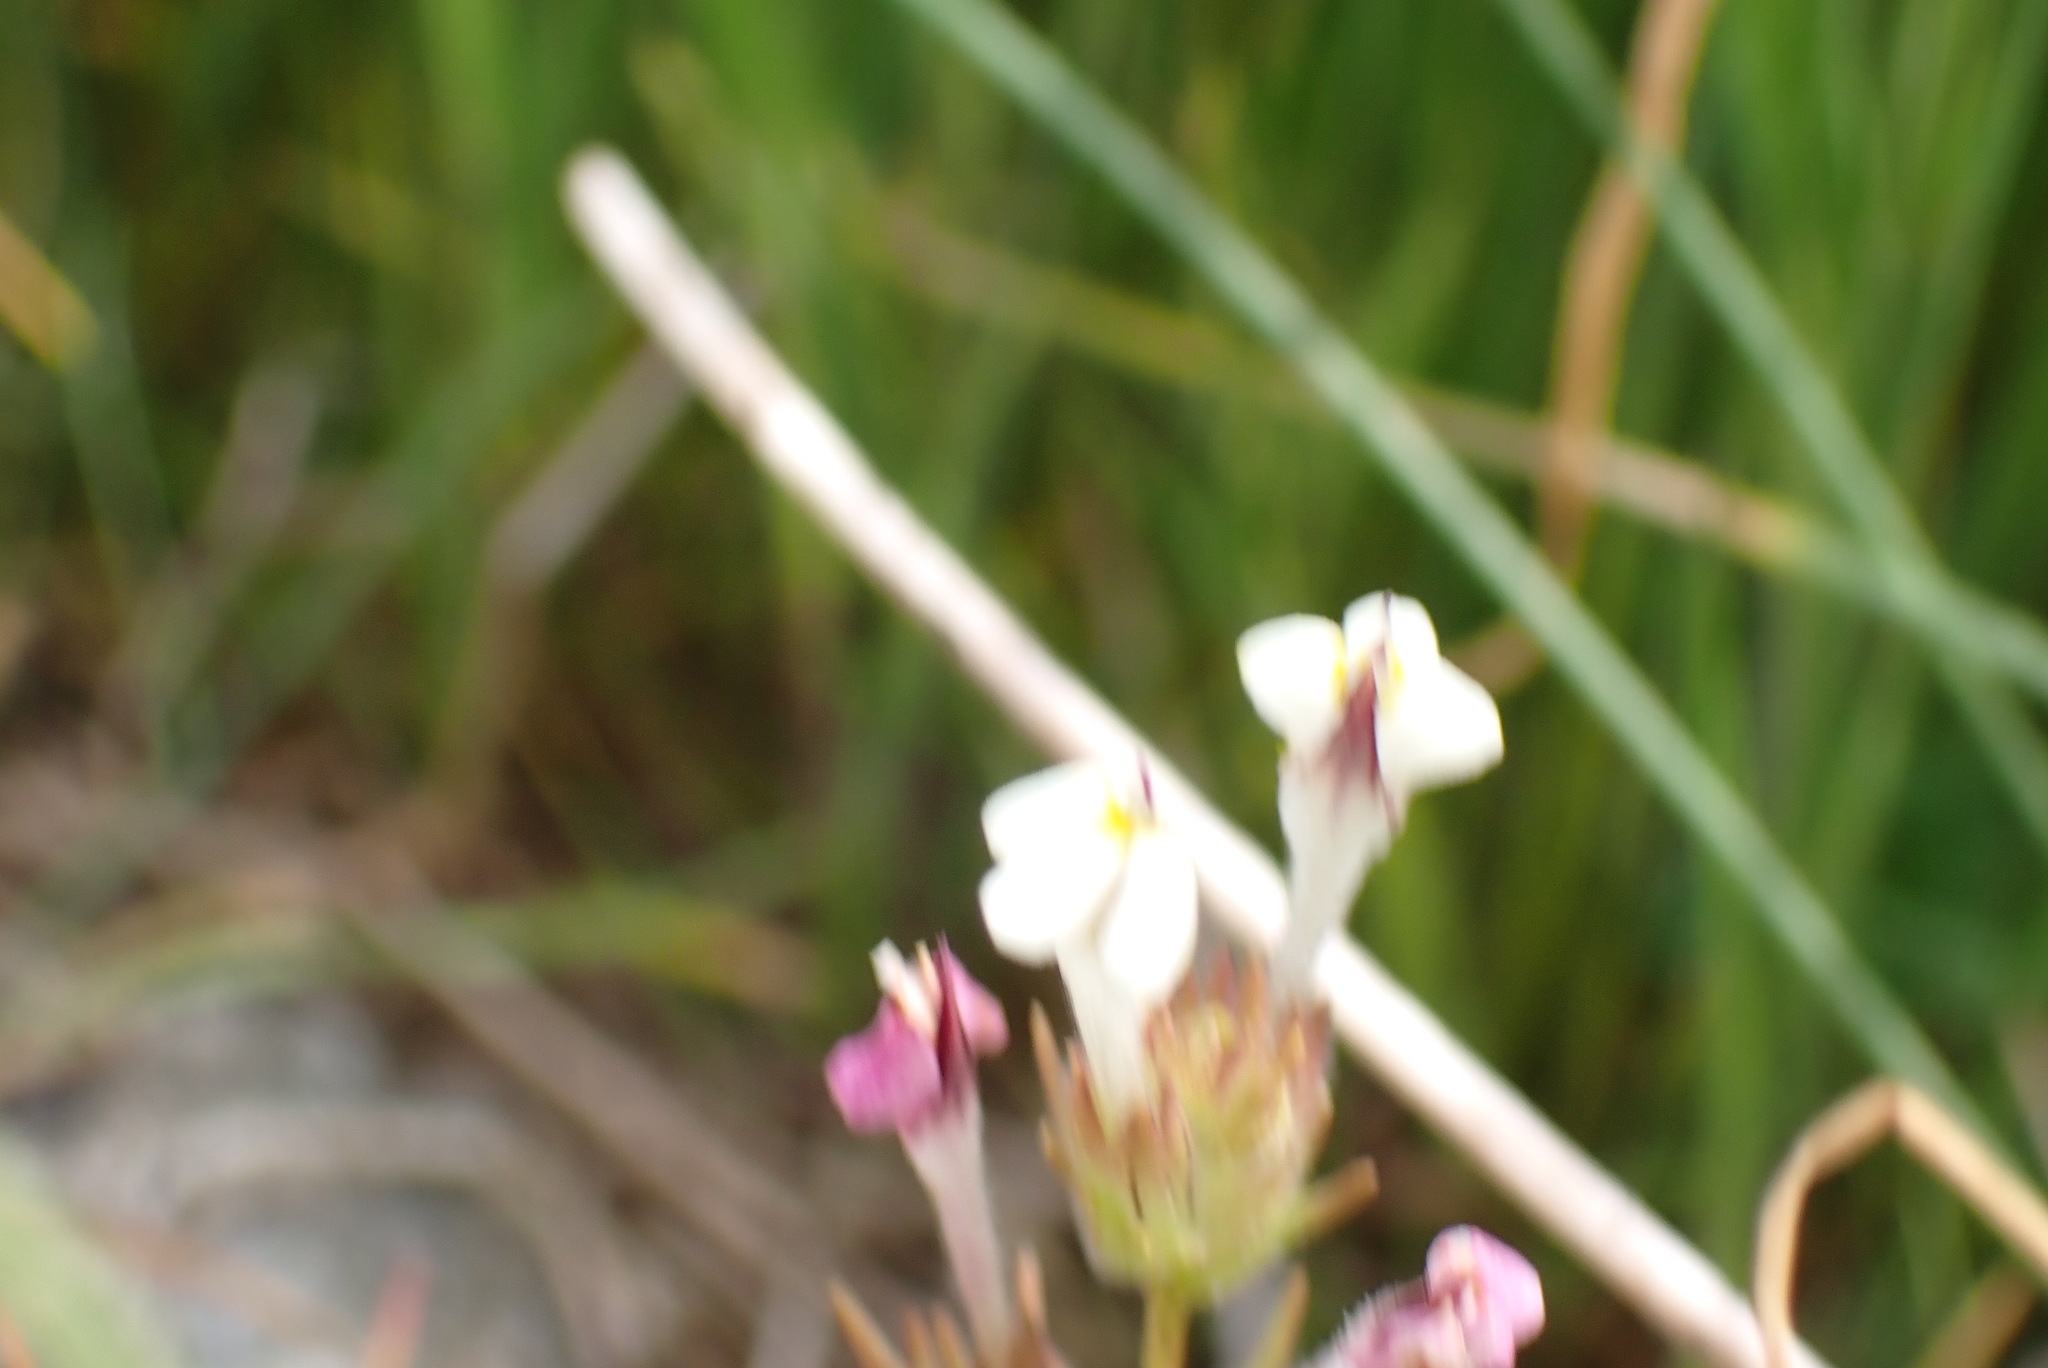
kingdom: Plantae
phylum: Tracheophyta
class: Magnoliopsida
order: Lamiales
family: Orobanchaceae
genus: Triphysaria
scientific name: Triphysaria versicolor
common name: Bearded false owl-clover
